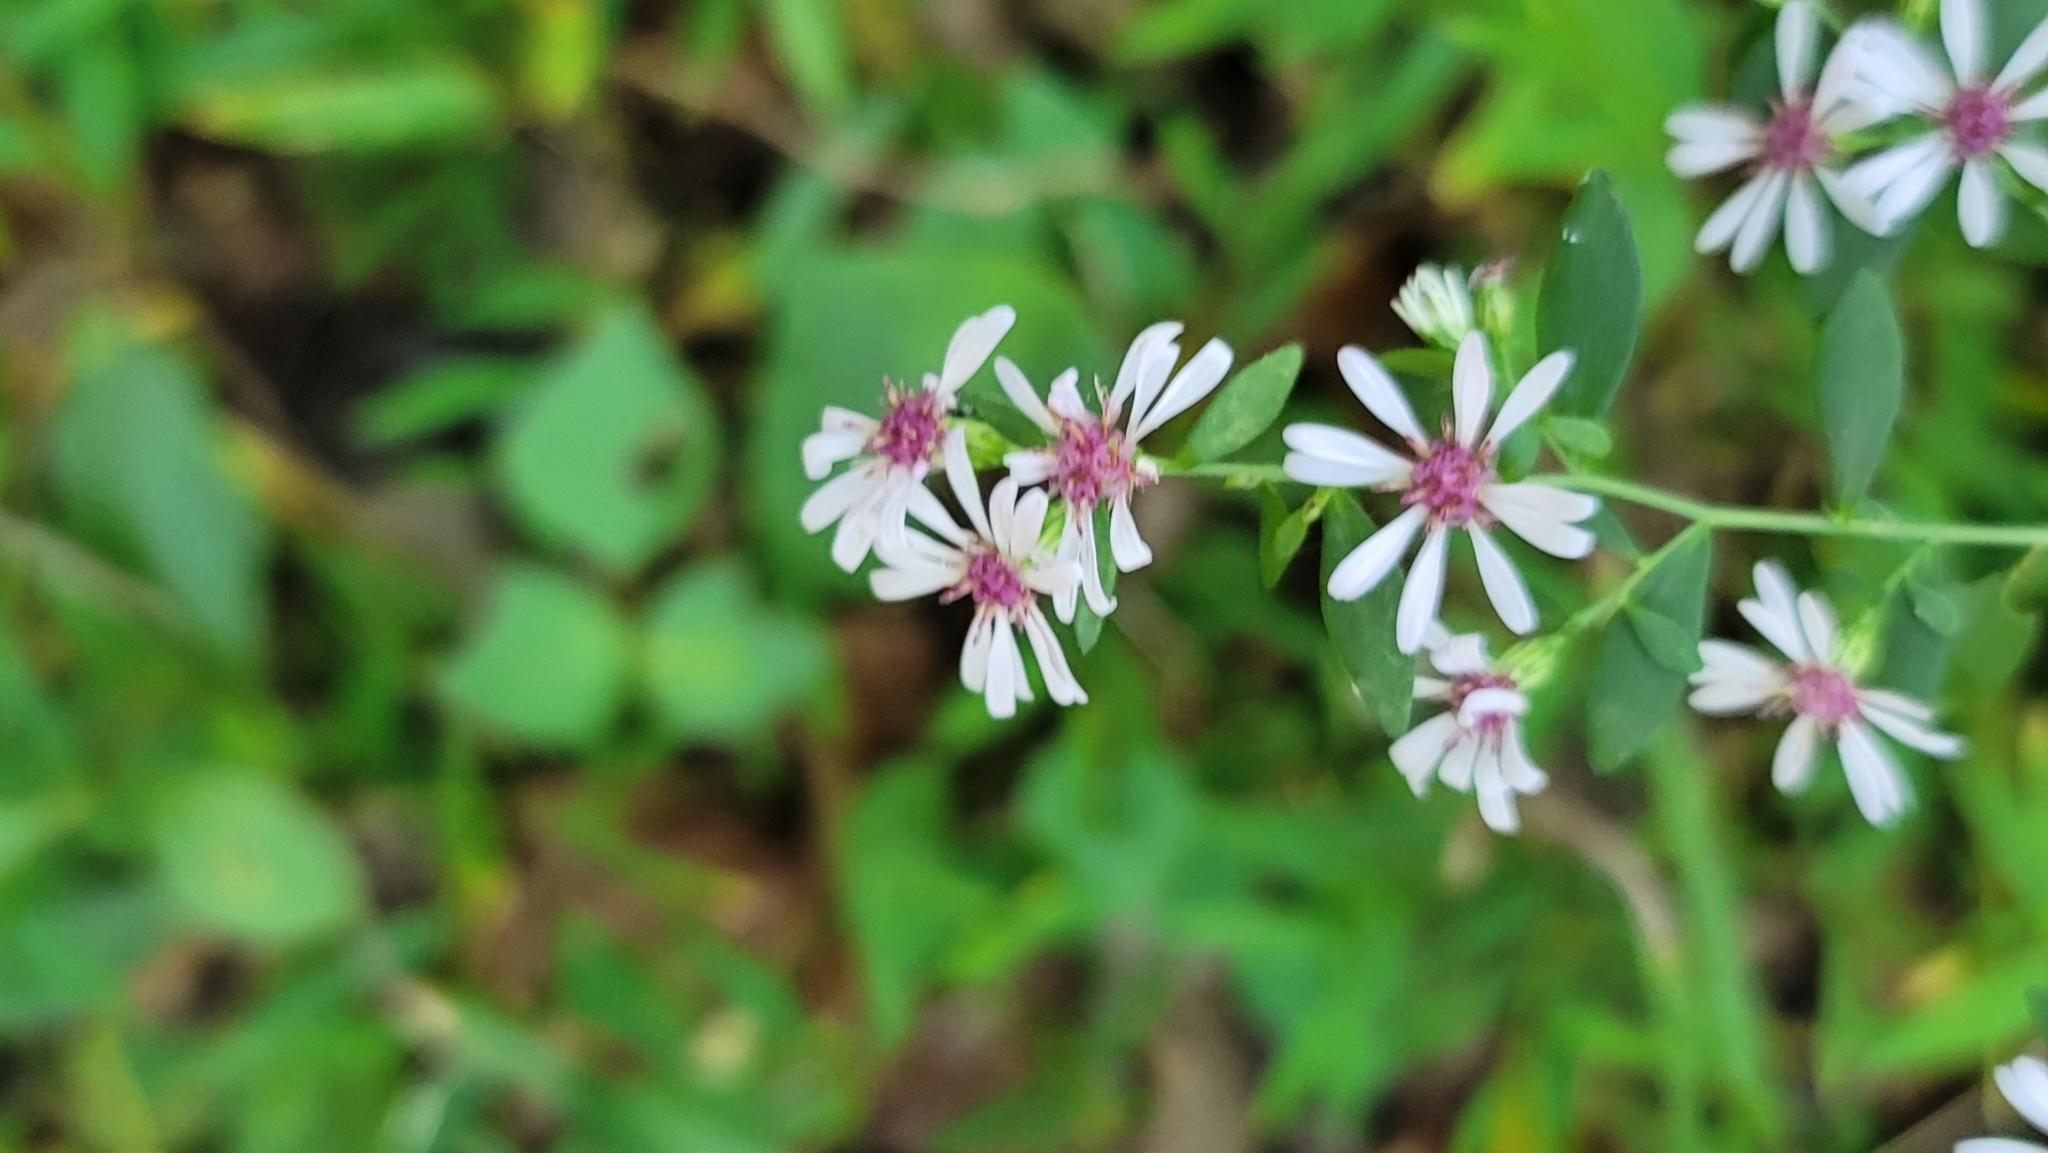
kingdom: Plantae
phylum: Tracheophyta
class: Magnoliopsida
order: Asterales
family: Asteraceae
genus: Symphyotrichum
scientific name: Symphyotrichum lateriflorum
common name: Calico aster
